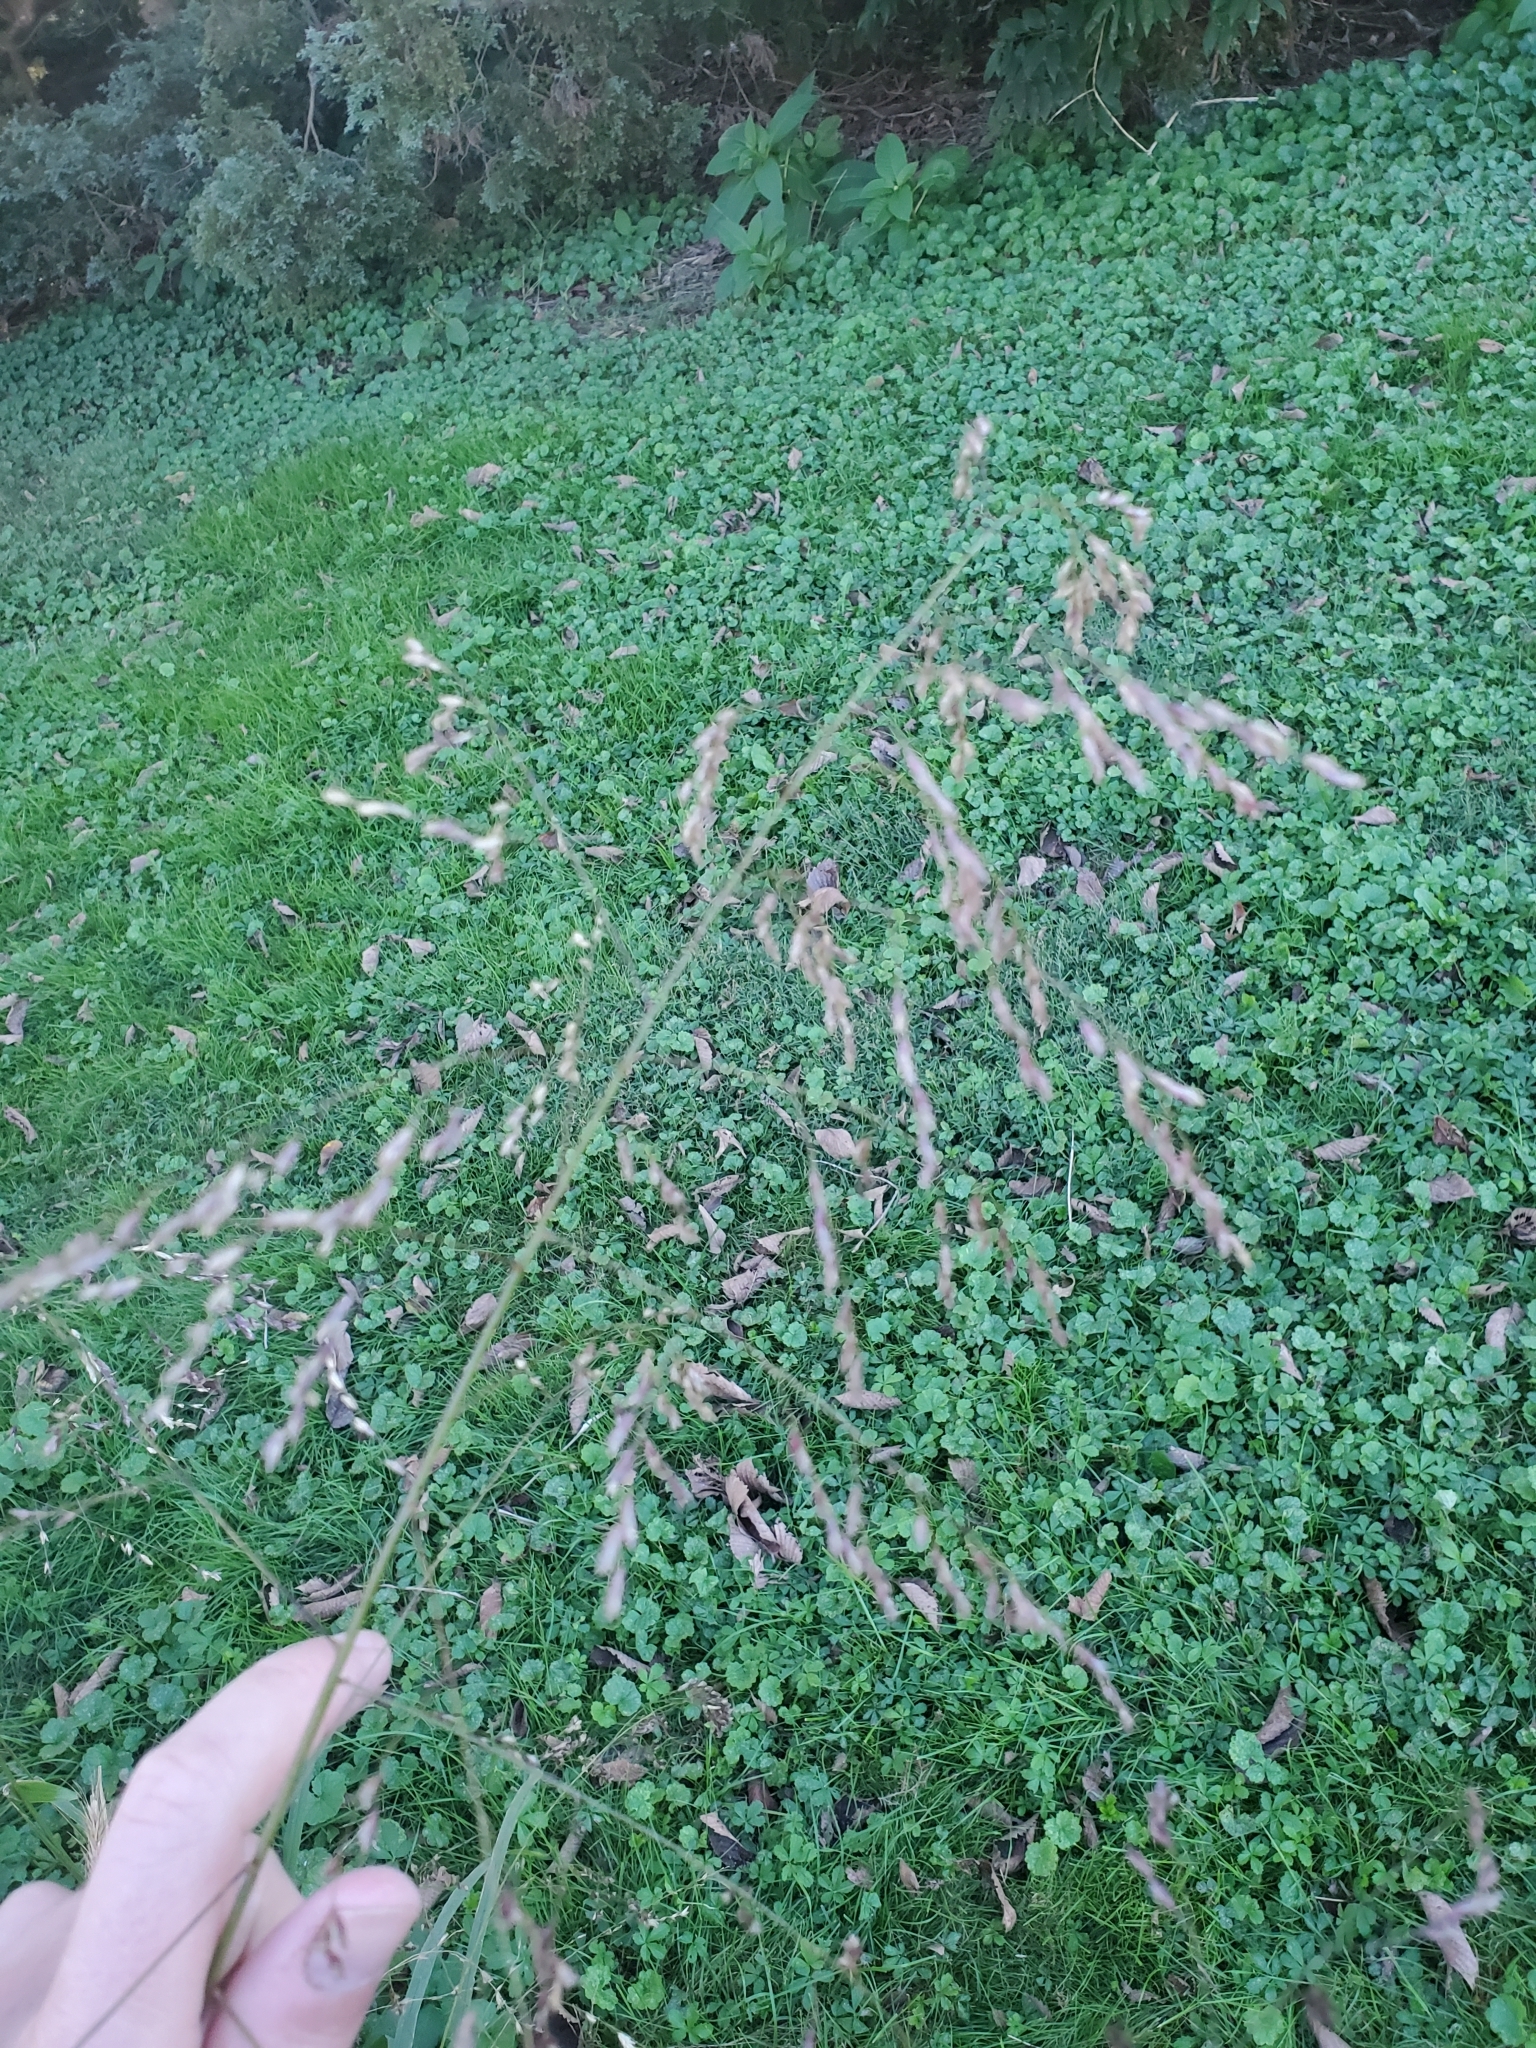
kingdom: Plantae
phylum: Tracheophyta
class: Liliopsida
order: Poales
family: Poaceae
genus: Tridens
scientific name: Tridens flavus
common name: Purpletop
